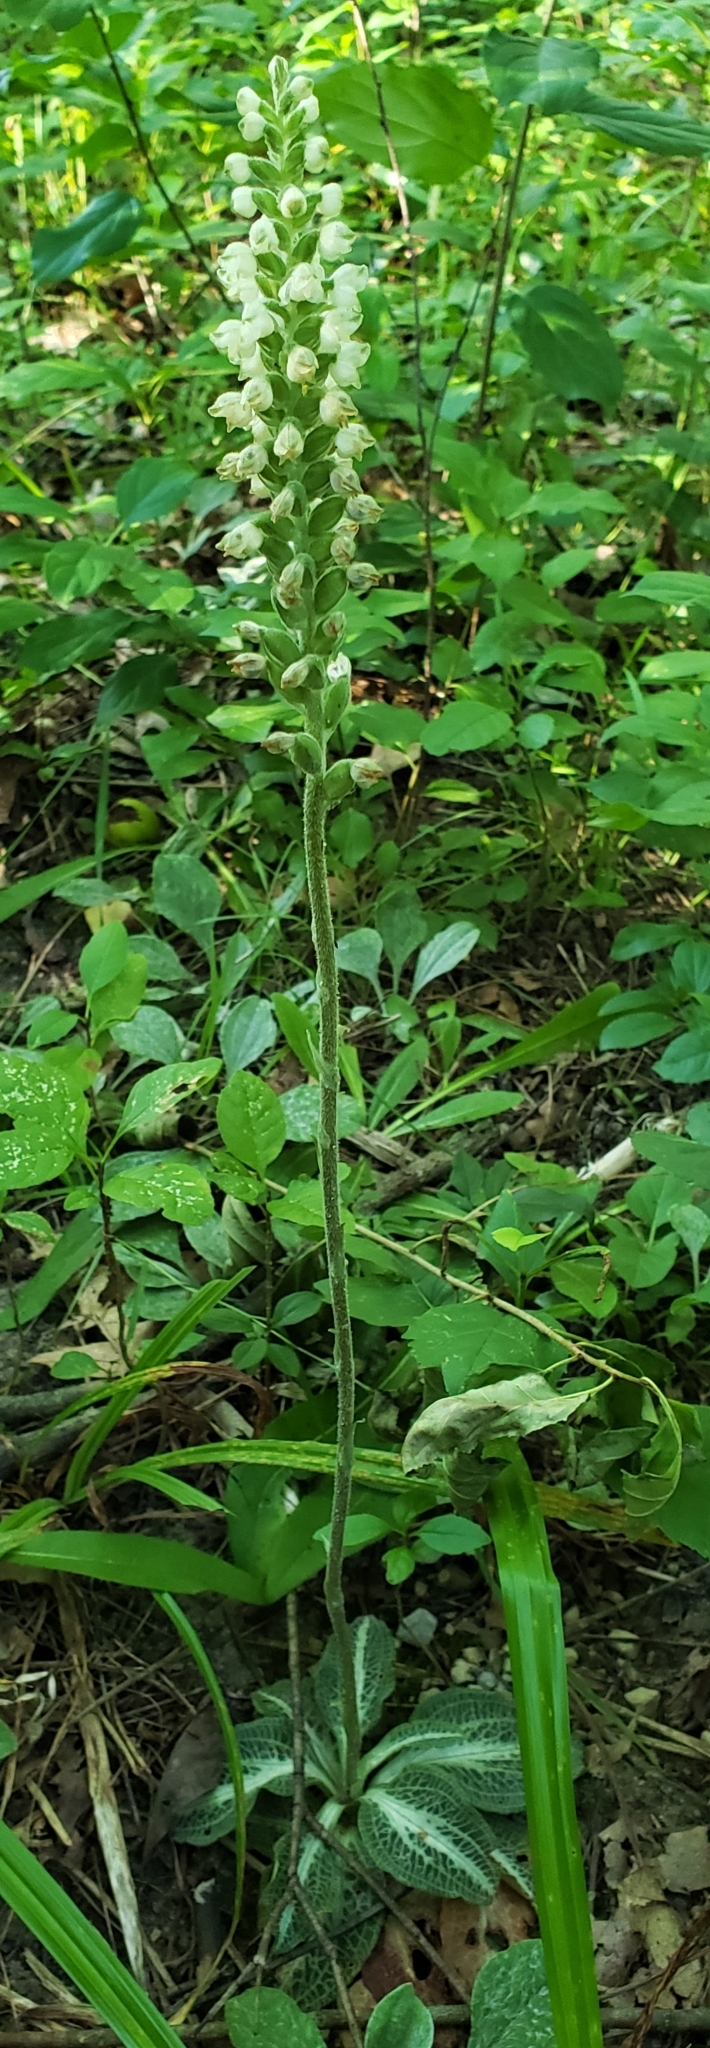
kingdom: Plantae
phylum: Tracheophyta
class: Liliopsida
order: Asparagales
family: Orchidaceae
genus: Goodyera
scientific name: Goodyera pubescens
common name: Downy rattlesnake-plantain
